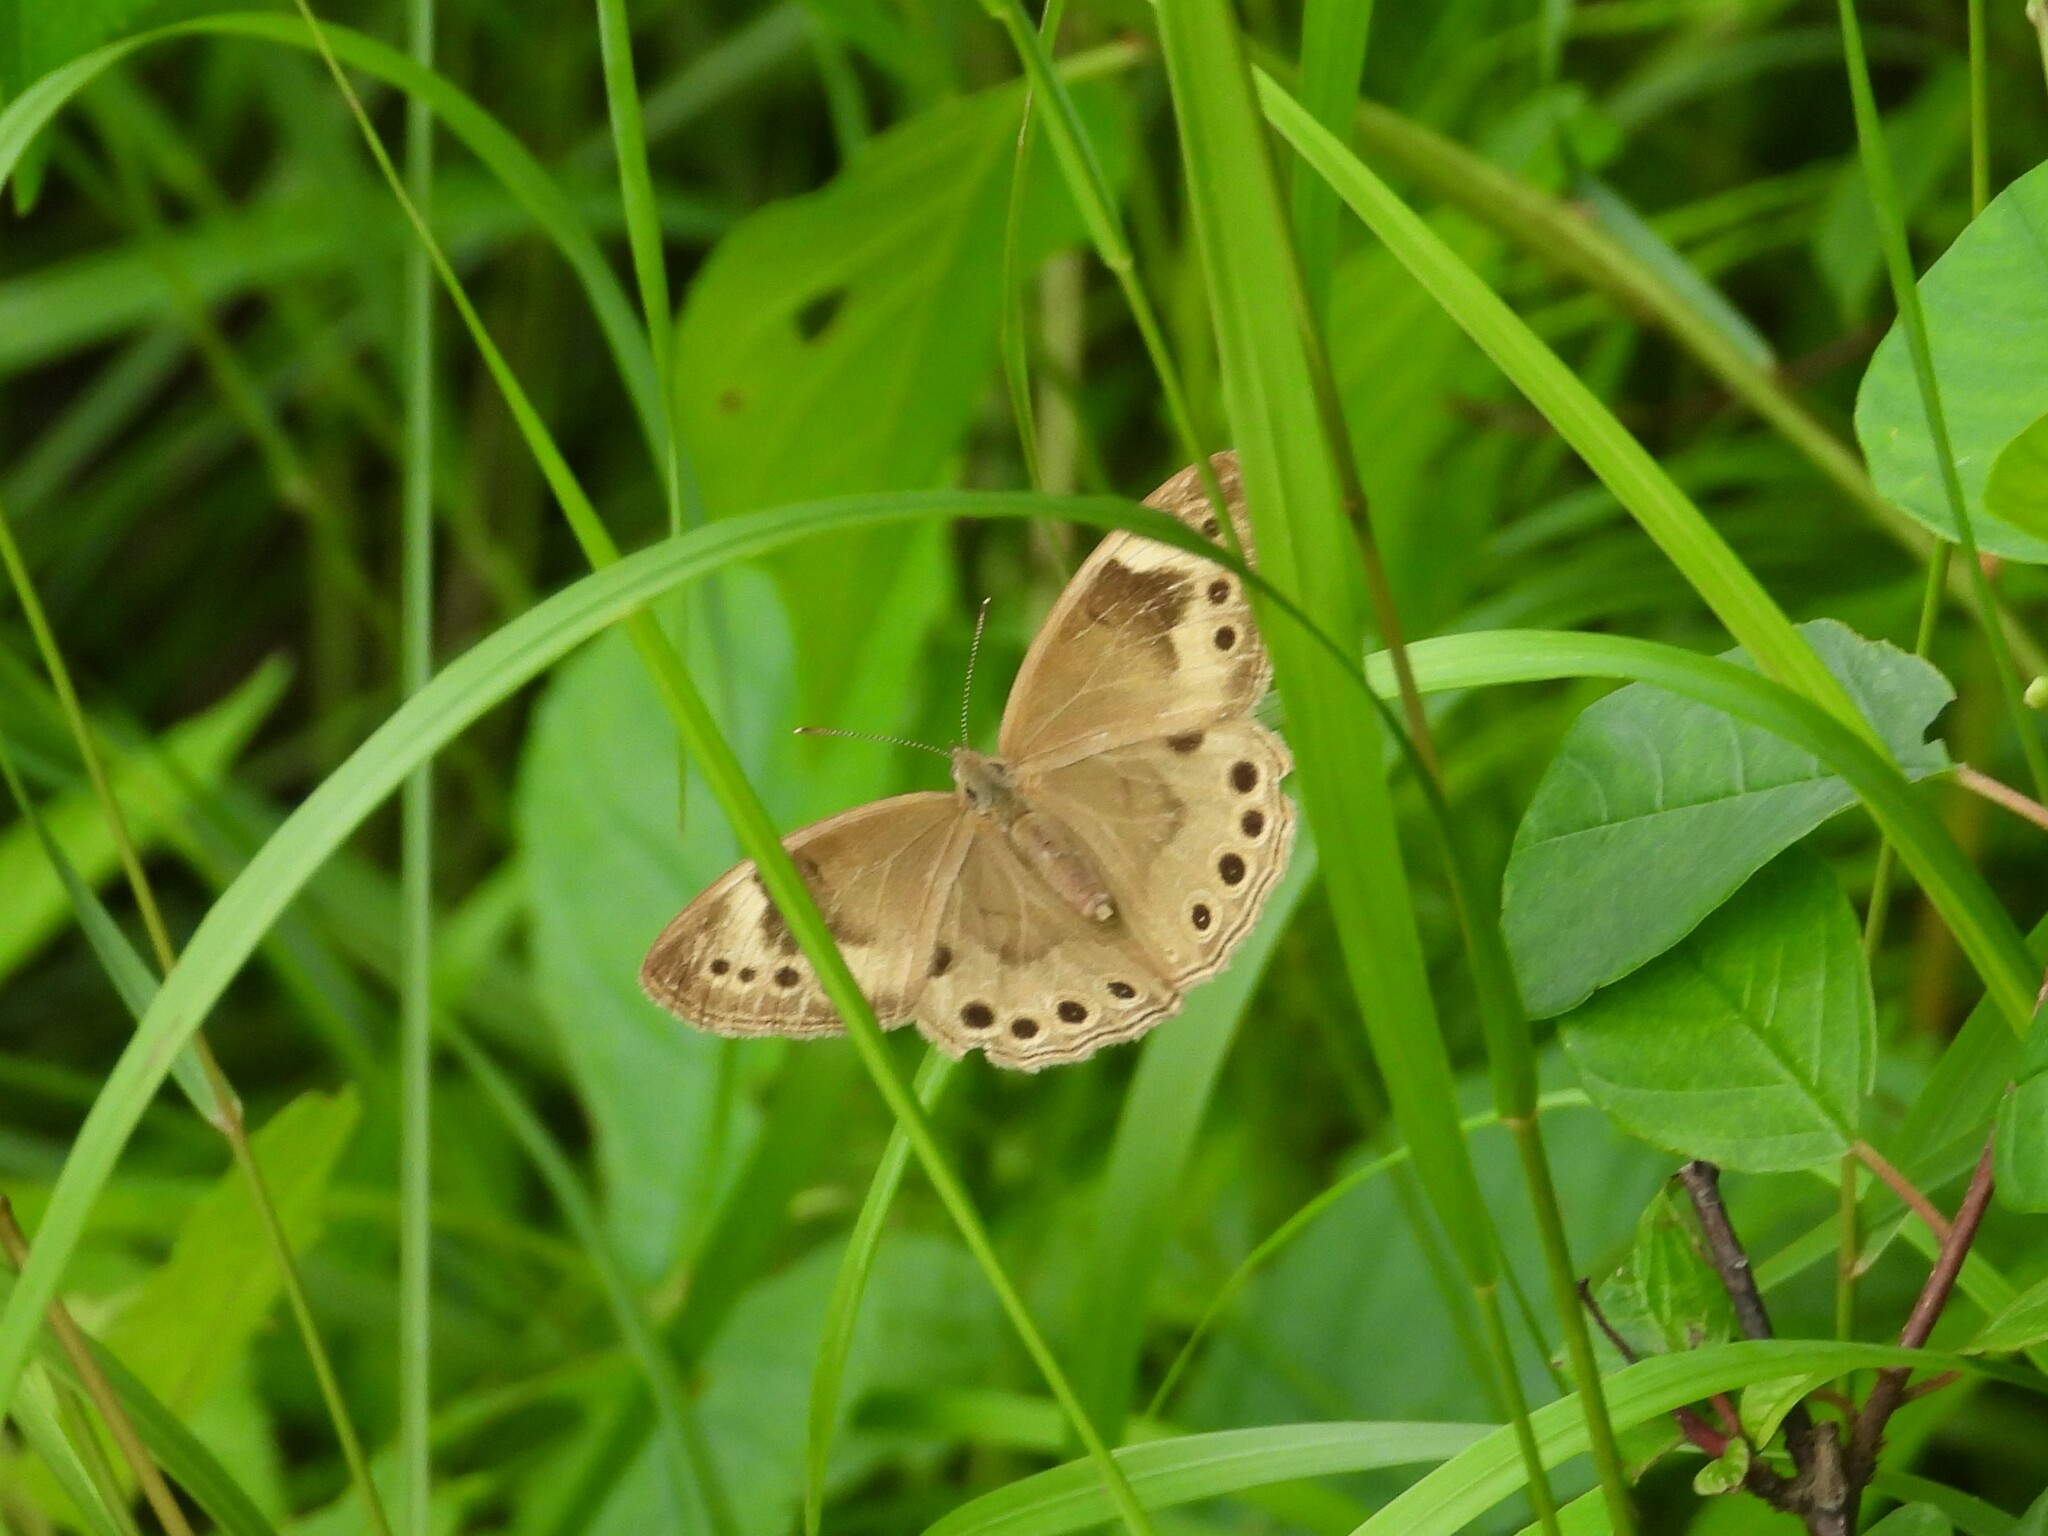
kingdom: Animalia
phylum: Arthropoda
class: Insecta
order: Lepidoptera
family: Nymphalidae
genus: Lethe
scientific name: Lethe eurydice
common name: Eyed brown
